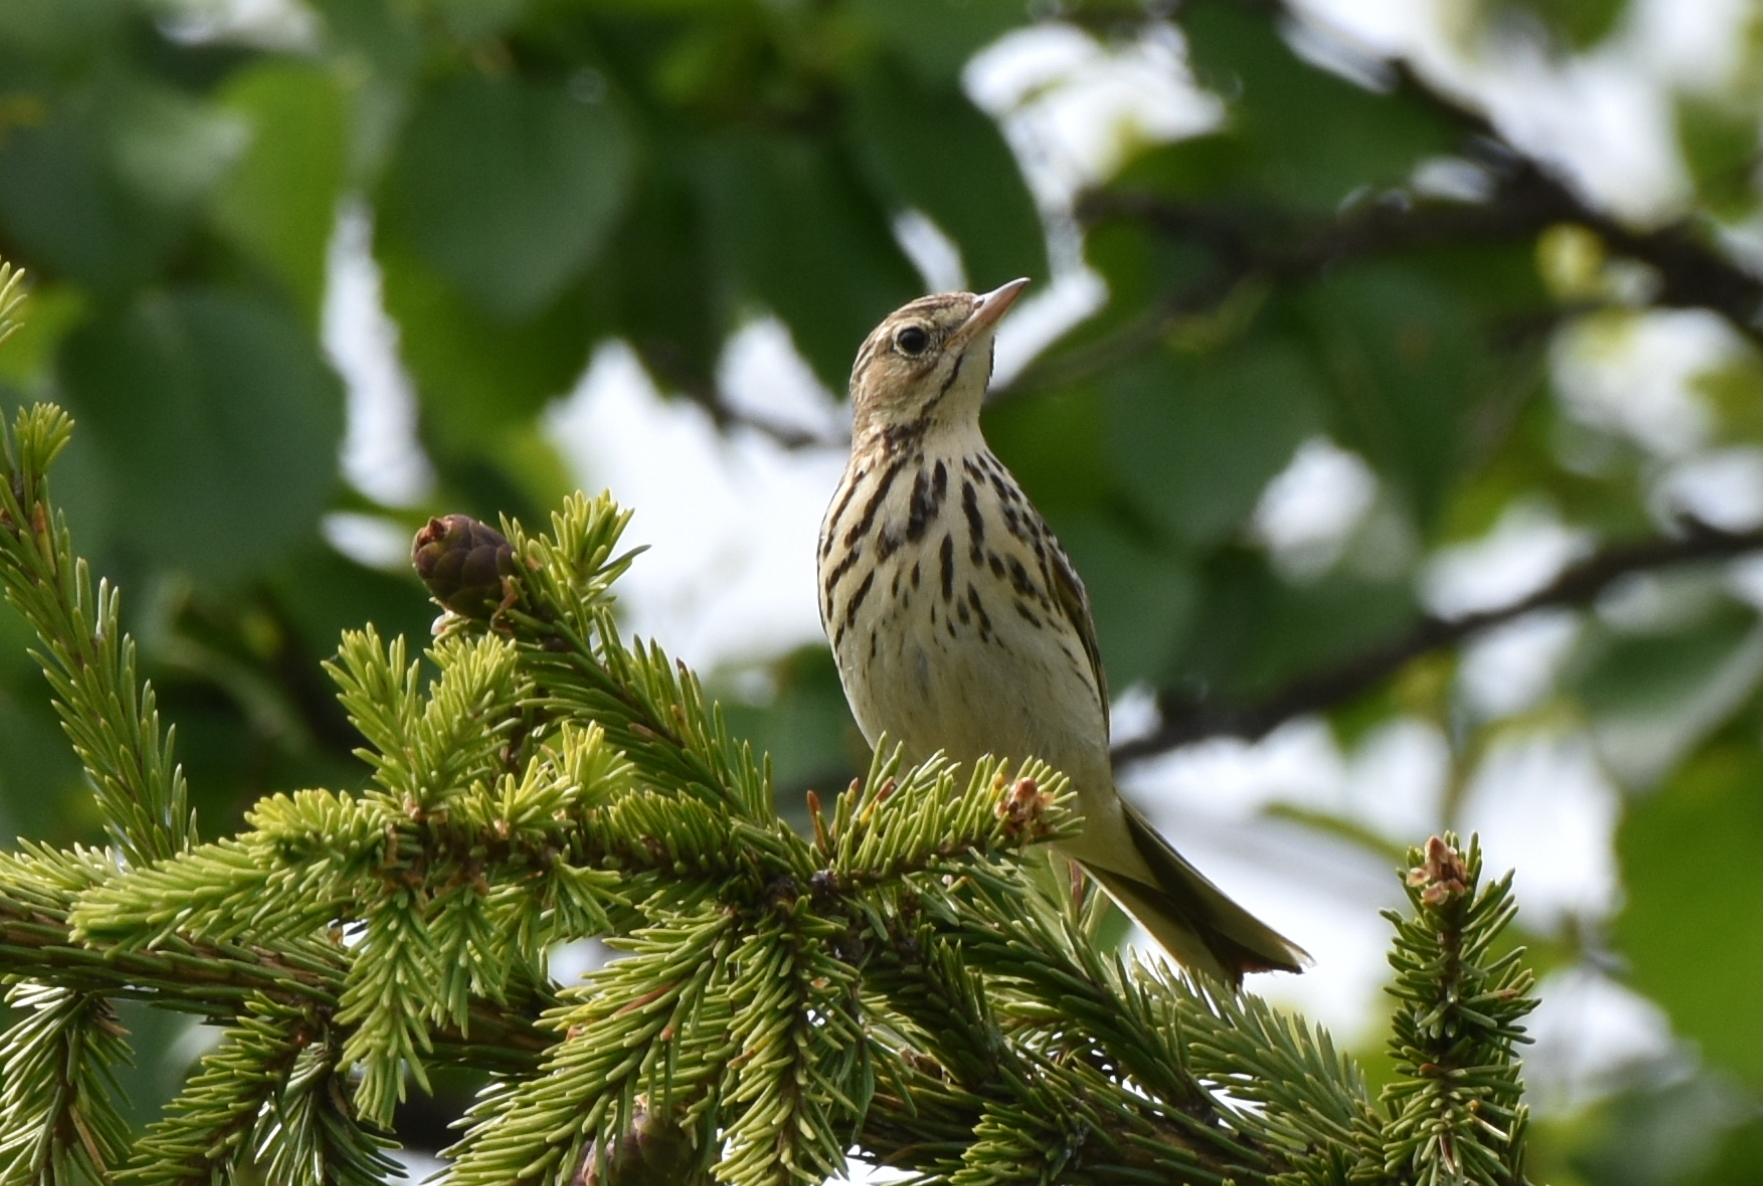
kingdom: Animalia
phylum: Chordata
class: Aves
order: Passeriformes
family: Motacillidae
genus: Anthus
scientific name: Anthus trivialis
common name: Tree pipit
